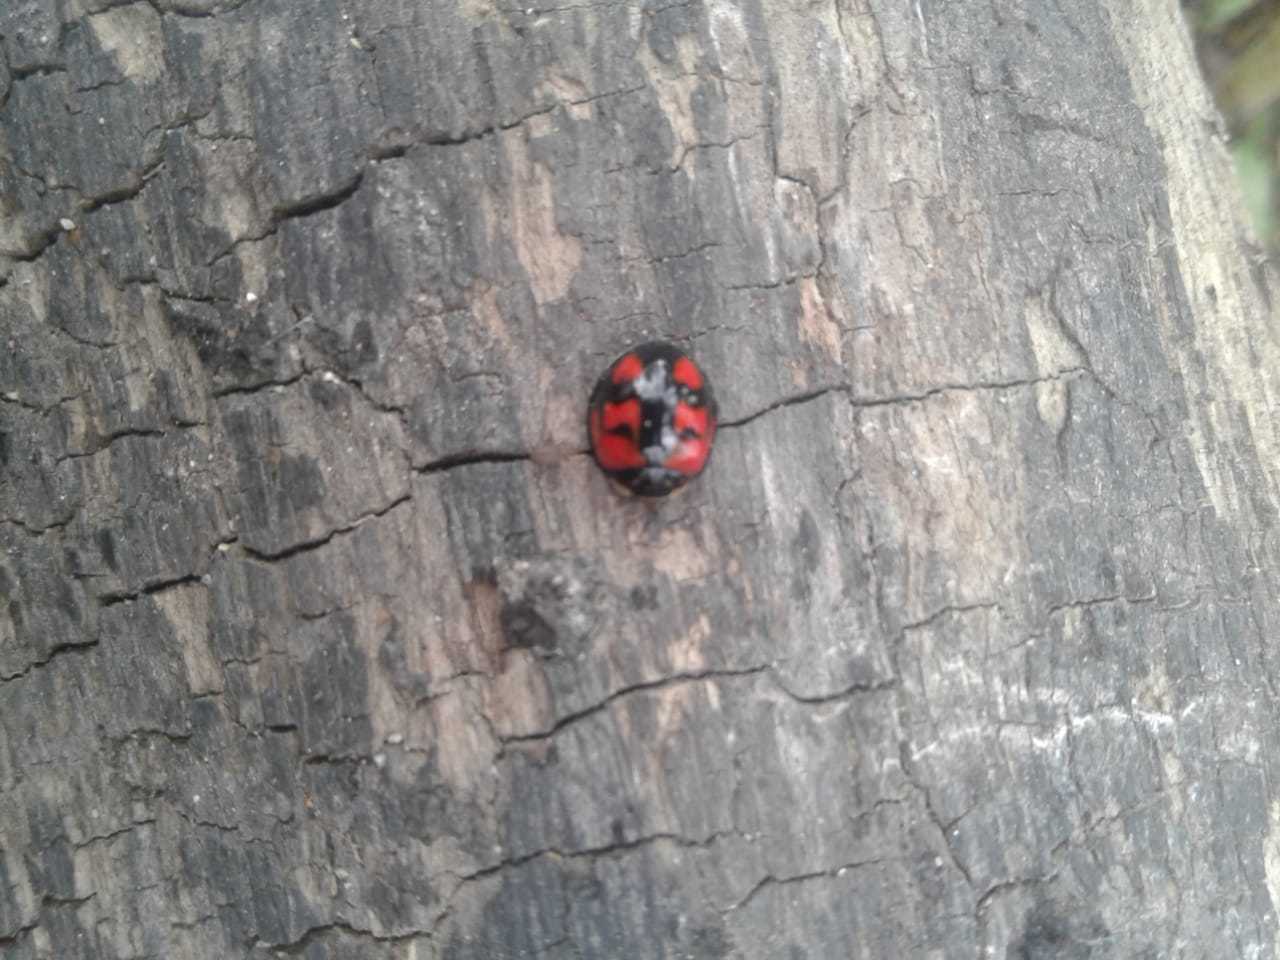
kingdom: Animalia
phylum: Arthropoda
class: Insecta
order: Coleoptera
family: Coccinellidae
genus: Cheilomenes
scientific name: Cheilomenes sexmaculata
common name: Ladybird beetle
